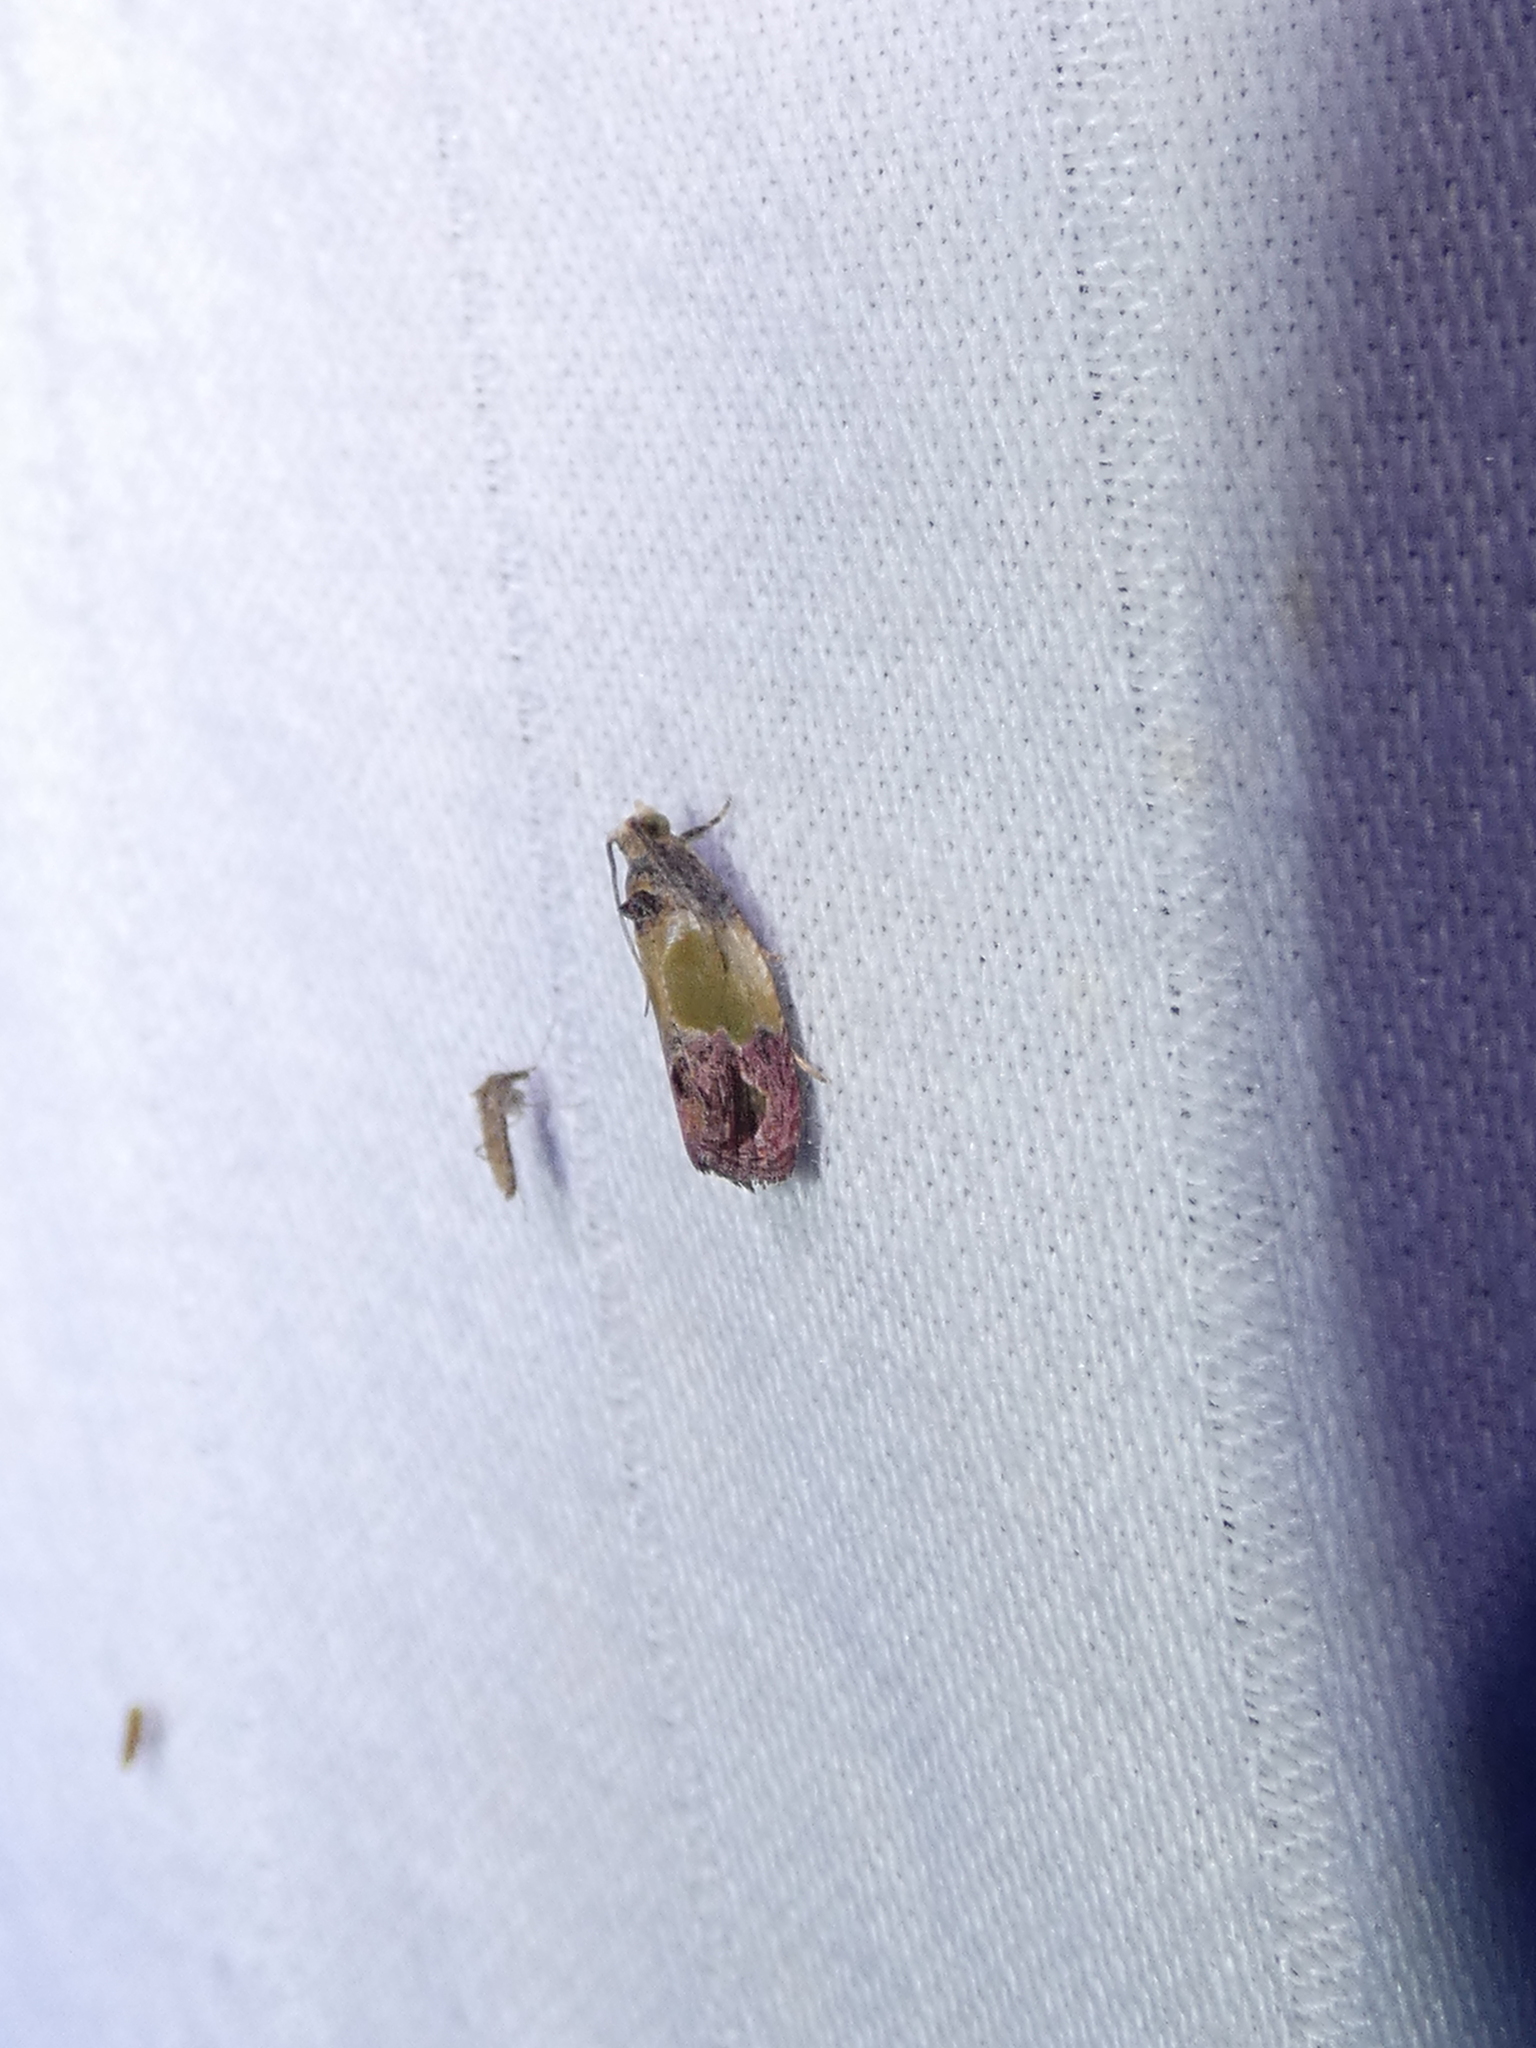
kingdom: Animalia
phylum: Arthropoda
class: Insecta
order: Lepidoptera
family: Tortricidae
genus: Eumarozia
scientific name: Eumarozia malachitana
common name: Sculptured moth
